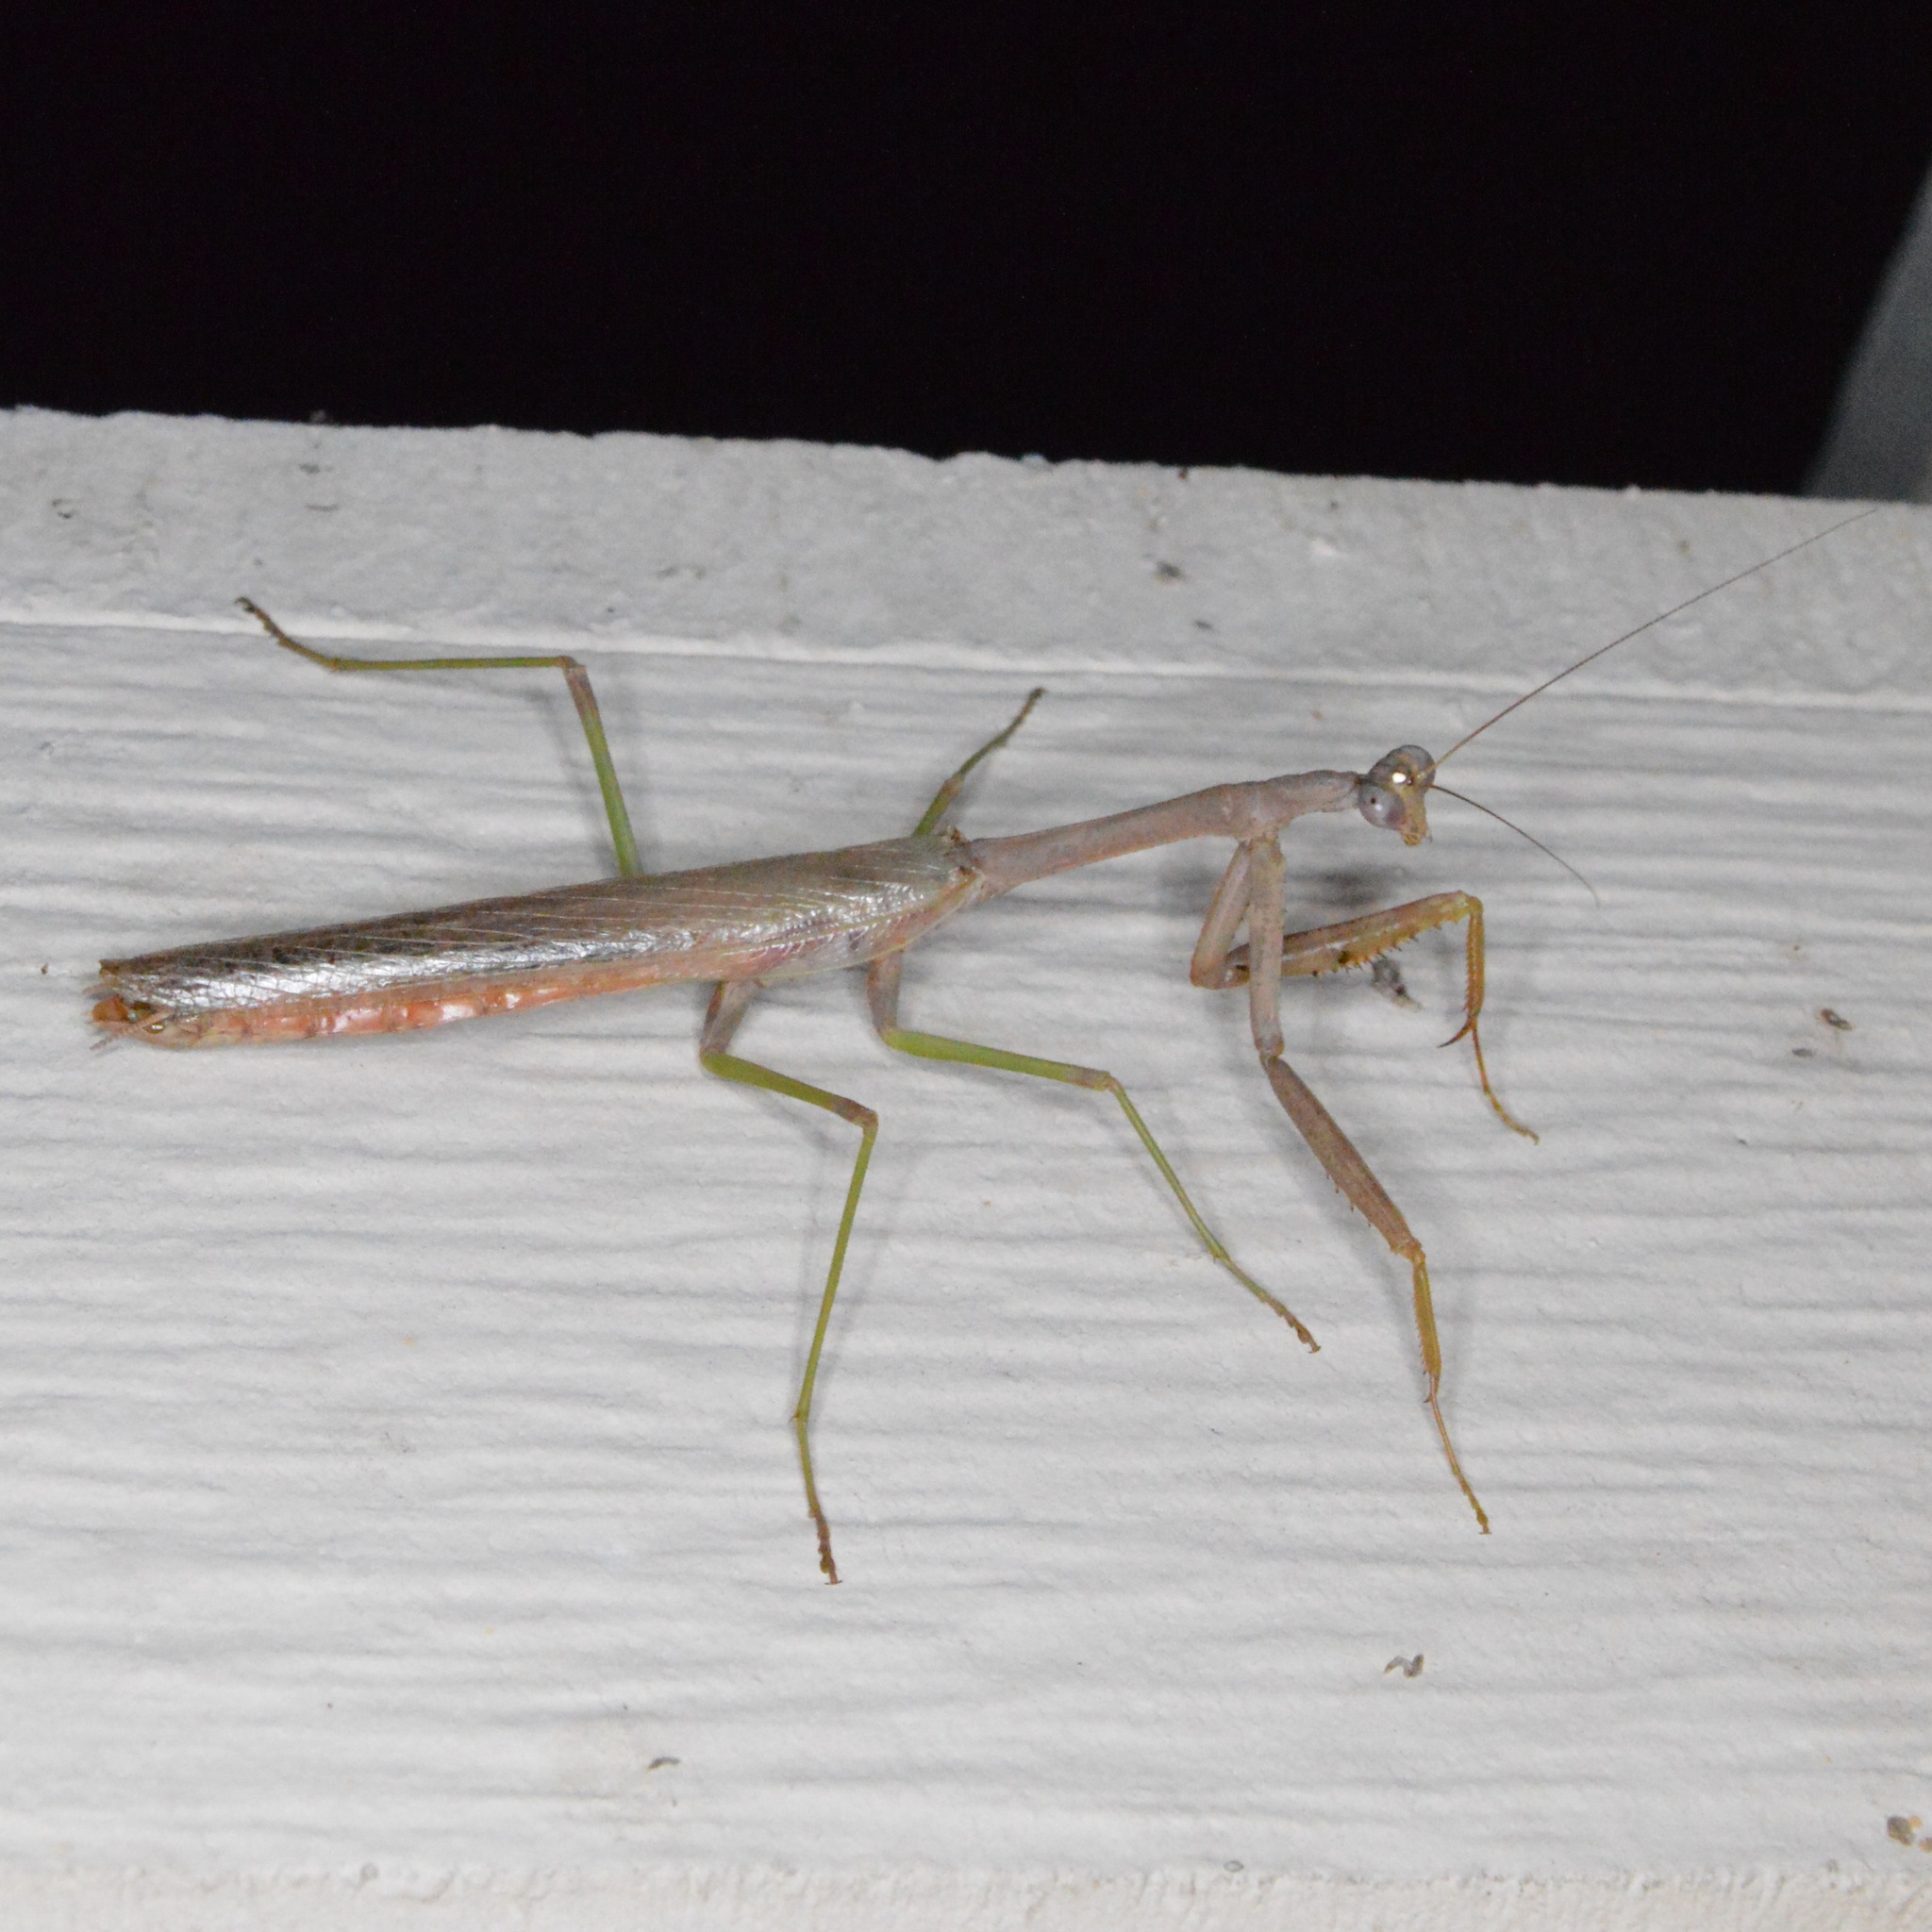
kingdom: Animalia
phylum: Arthropoda
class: Insecta
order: Mantodea
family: Mantidae
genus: Stagmomantis
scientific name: Stagmomantis carolina
